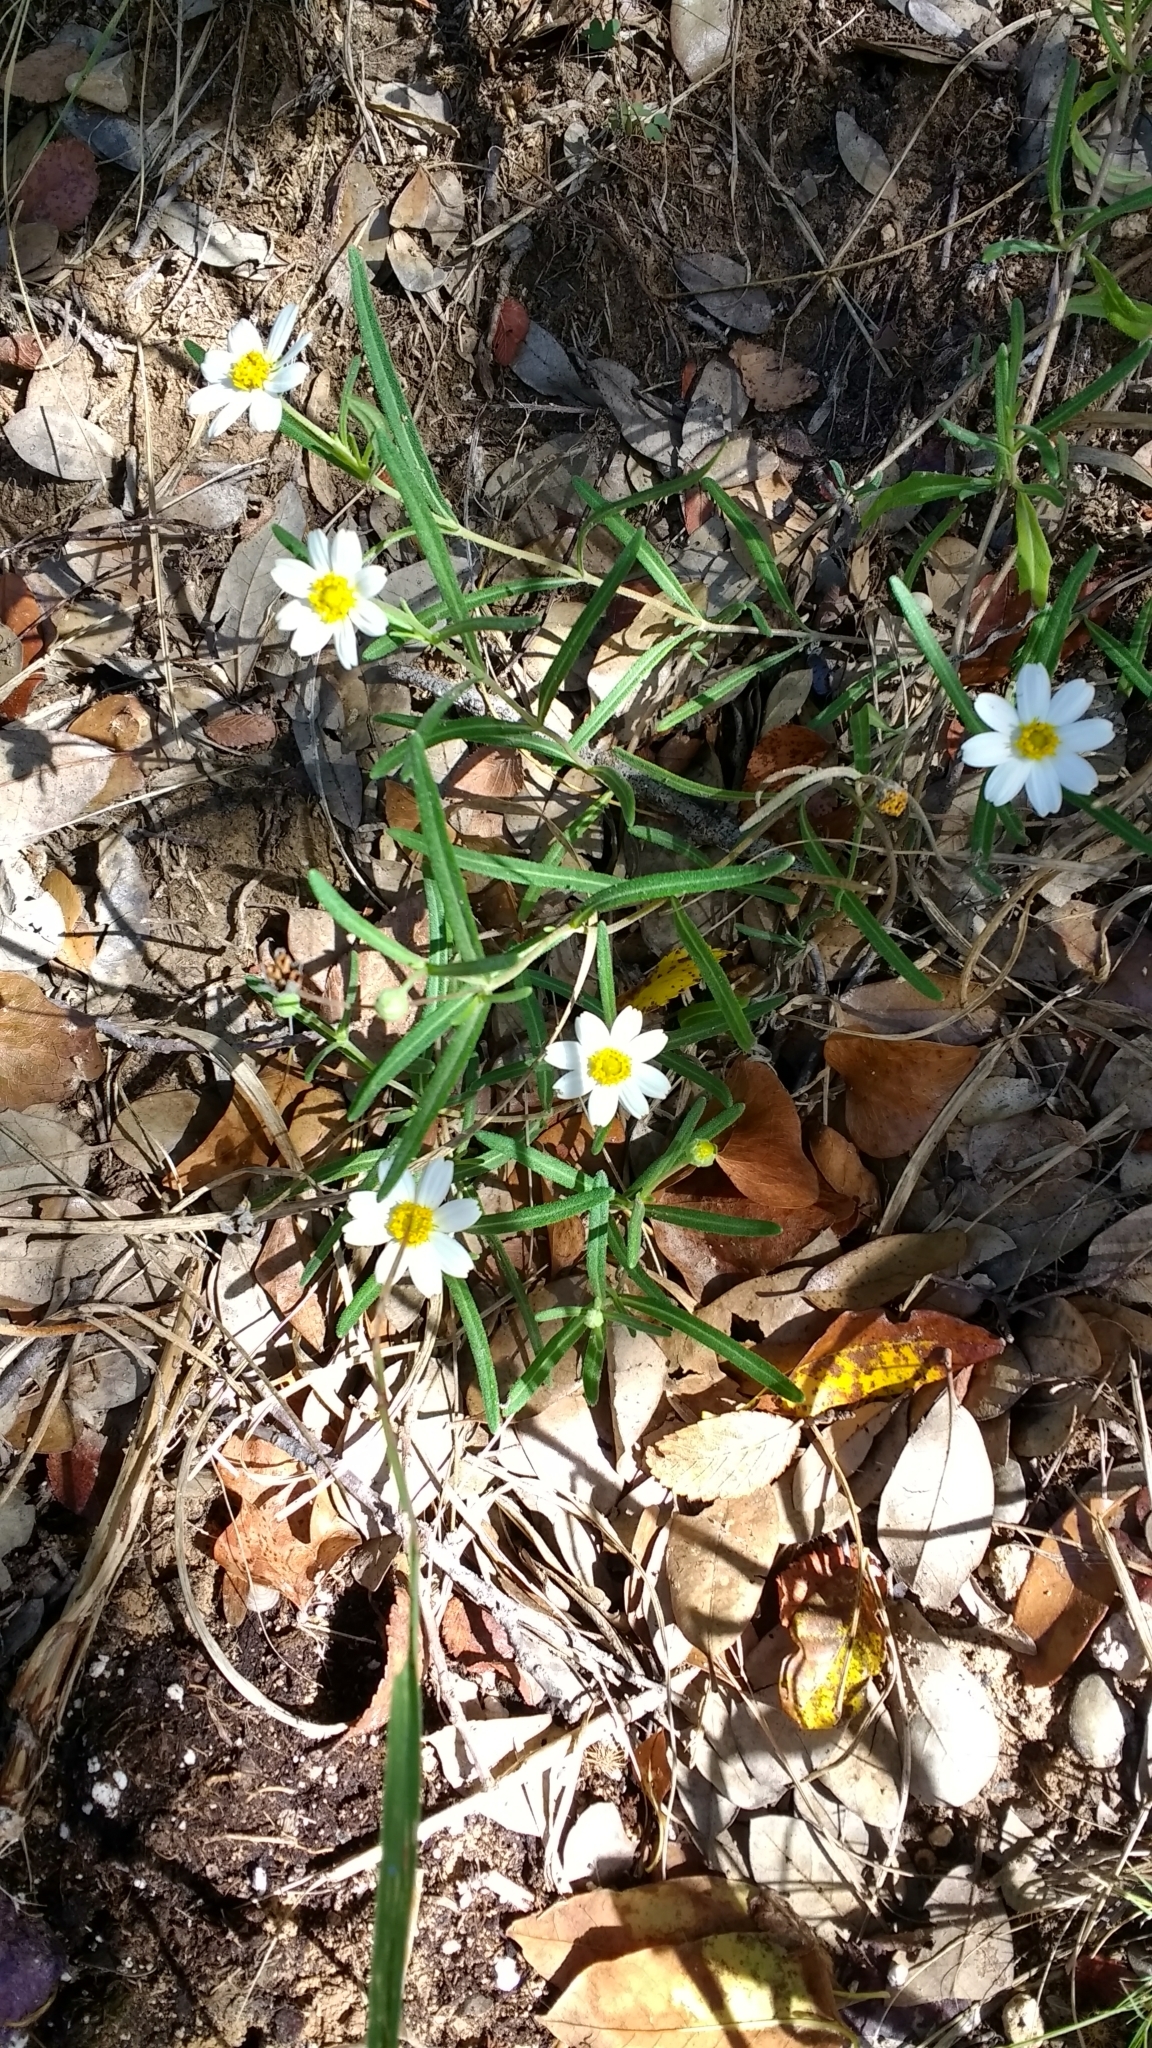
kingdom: Plantae
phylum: Tracheophyta
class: Magnoliopsida
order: Asterales
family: Asteraceae
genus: Melampodium
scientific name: Melampodium leucanthum
